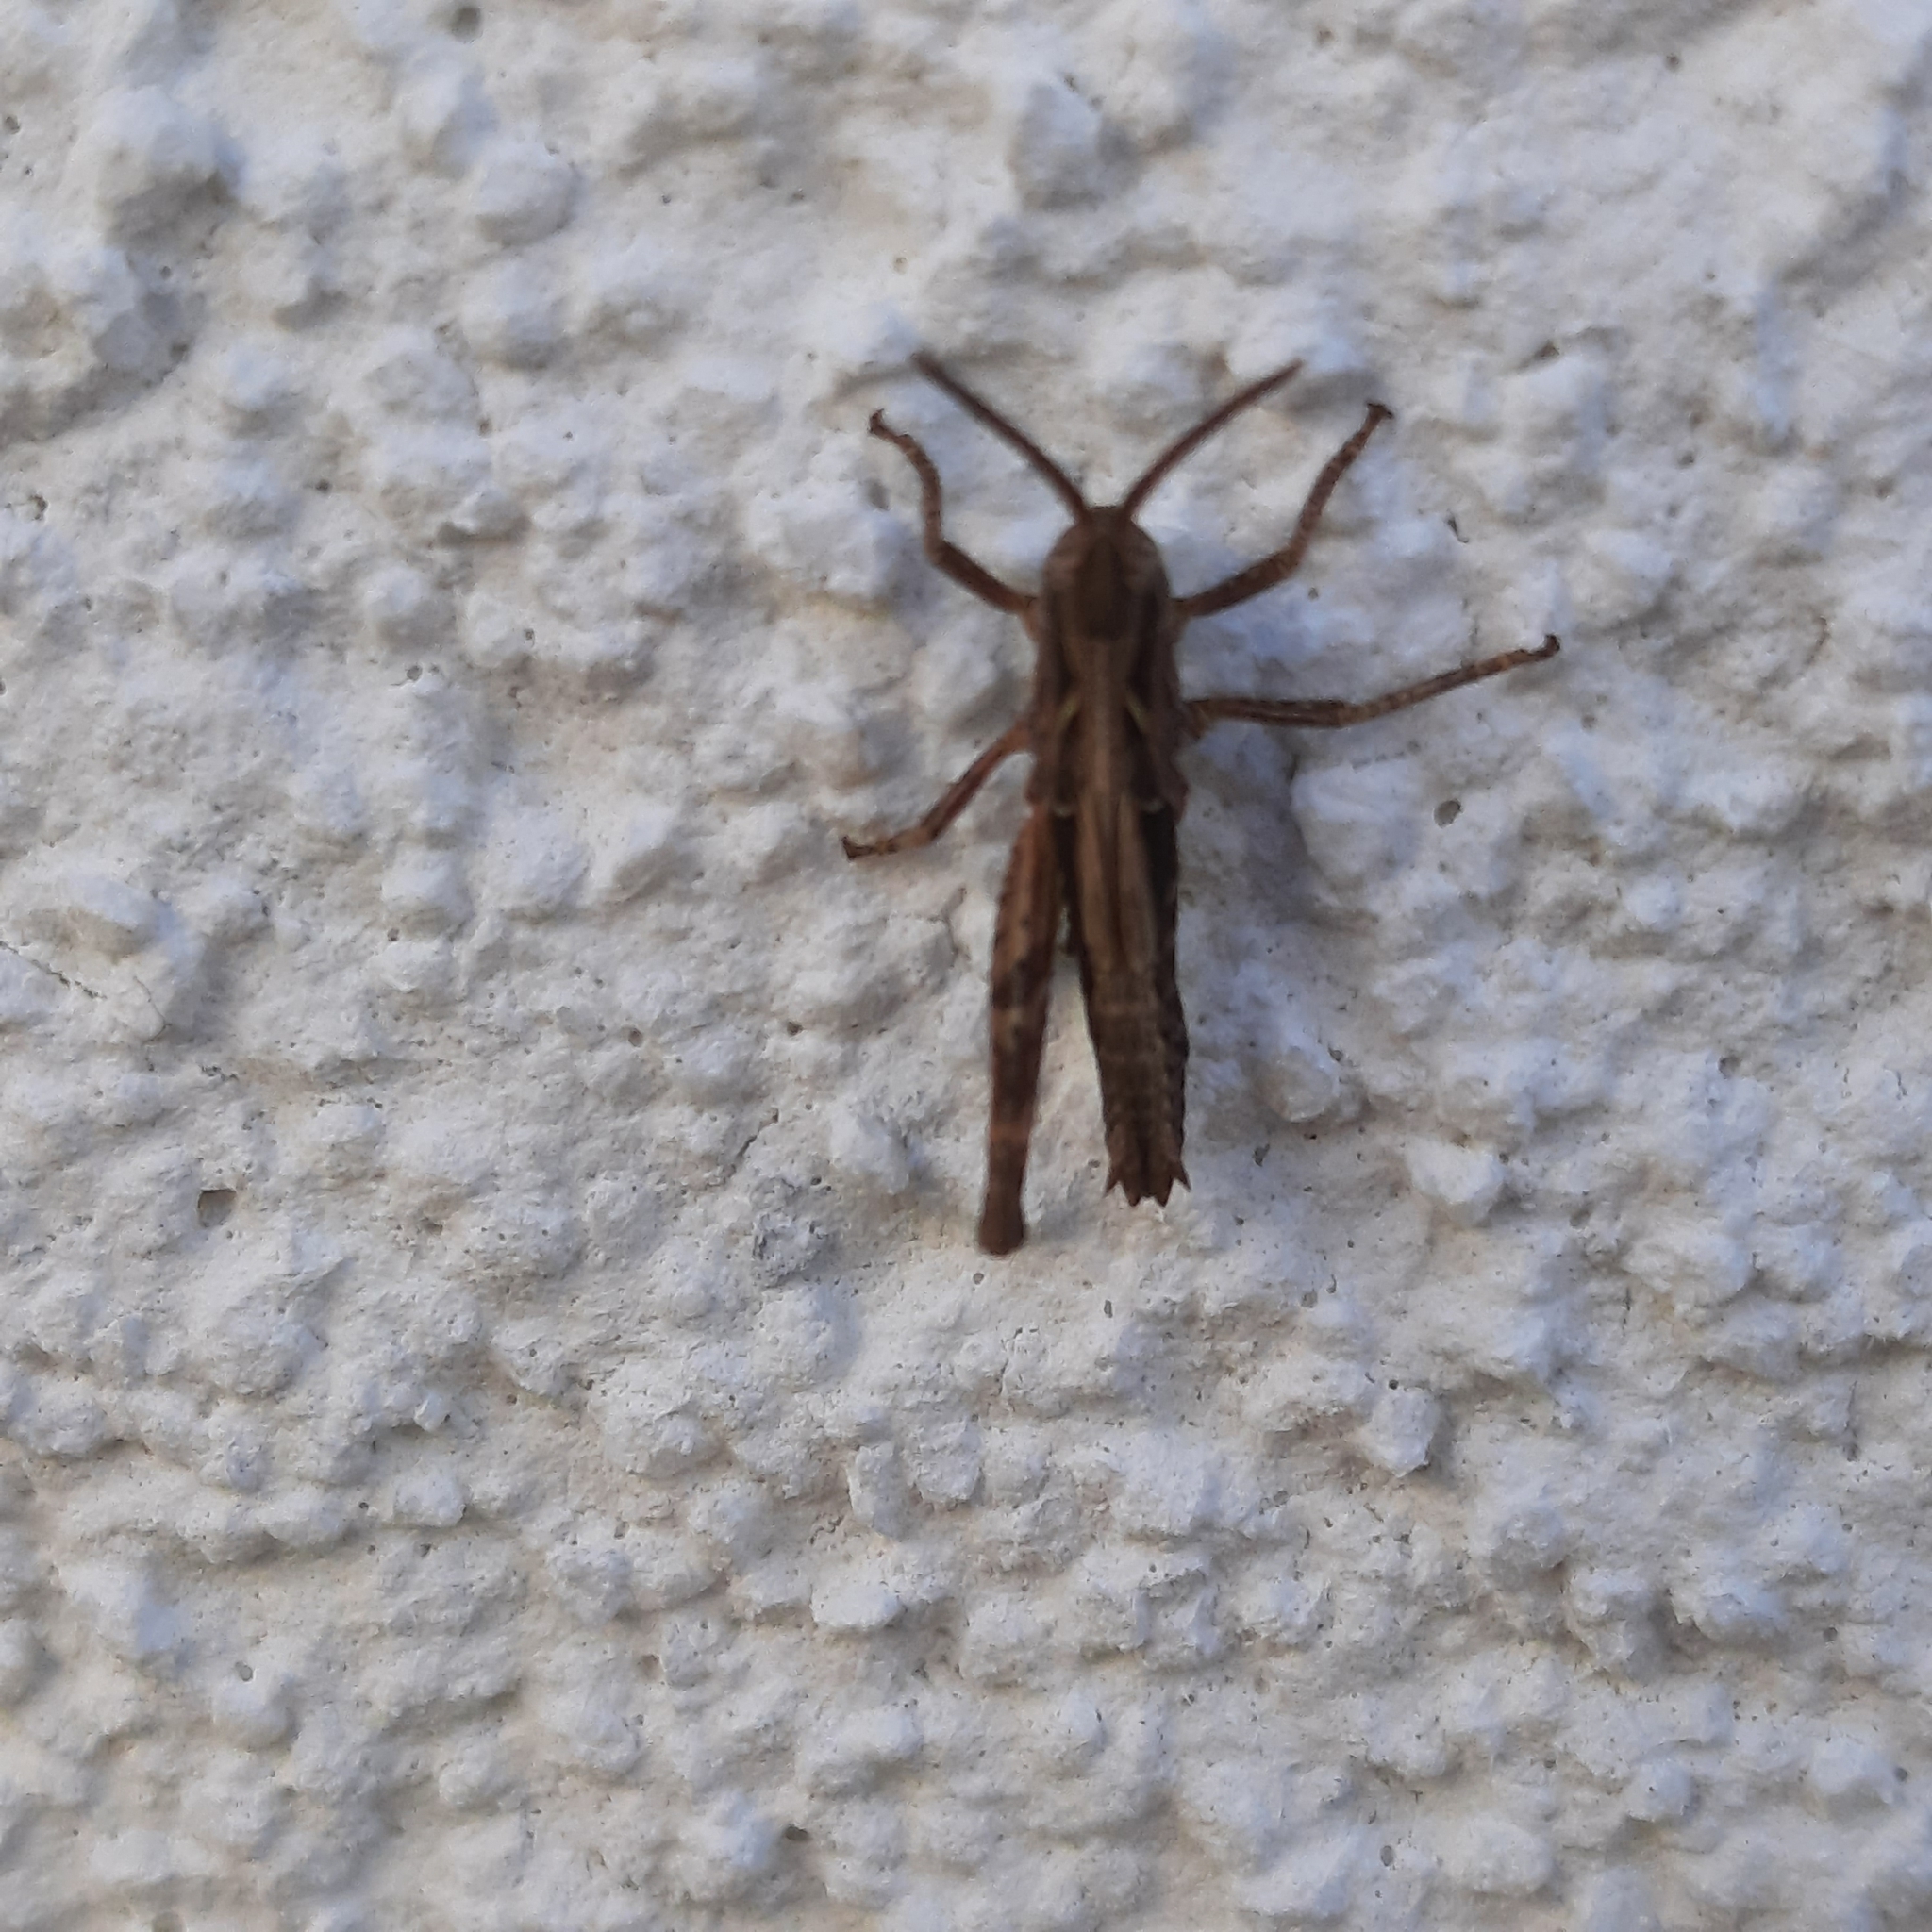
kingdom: Animalia
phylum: Arthropoda
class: Insecta
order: Orthoptera
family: Acrididae
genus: Glyptobothrus
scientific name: Glyptobothrus
